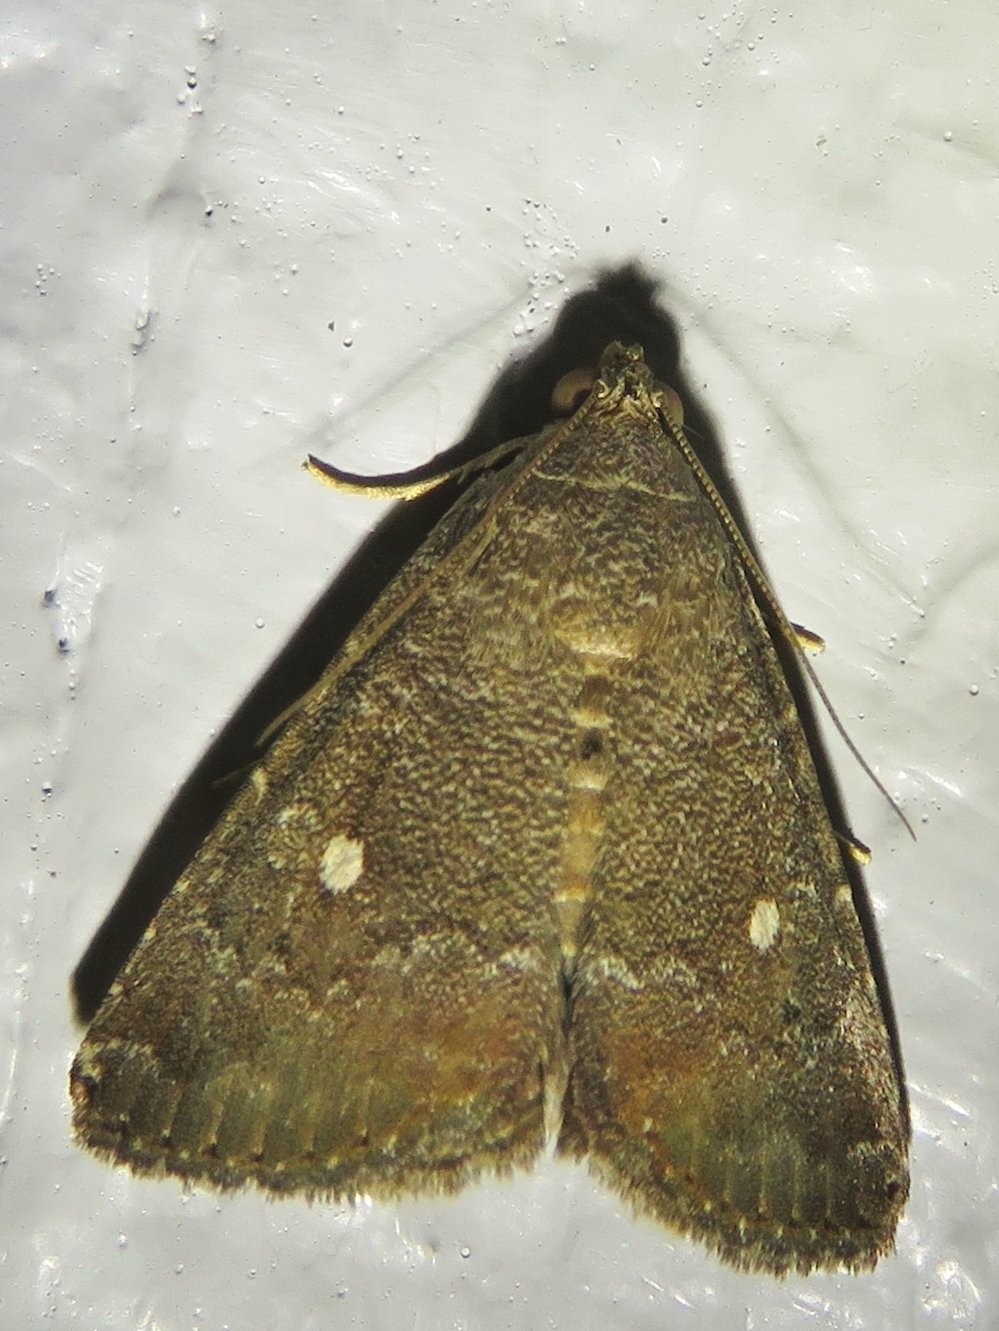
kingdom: Animalia
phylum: Arthropoda
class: Insecta
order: Lepidoptera
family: Noctuidae
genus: Amyna
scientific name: Amyna stricta
